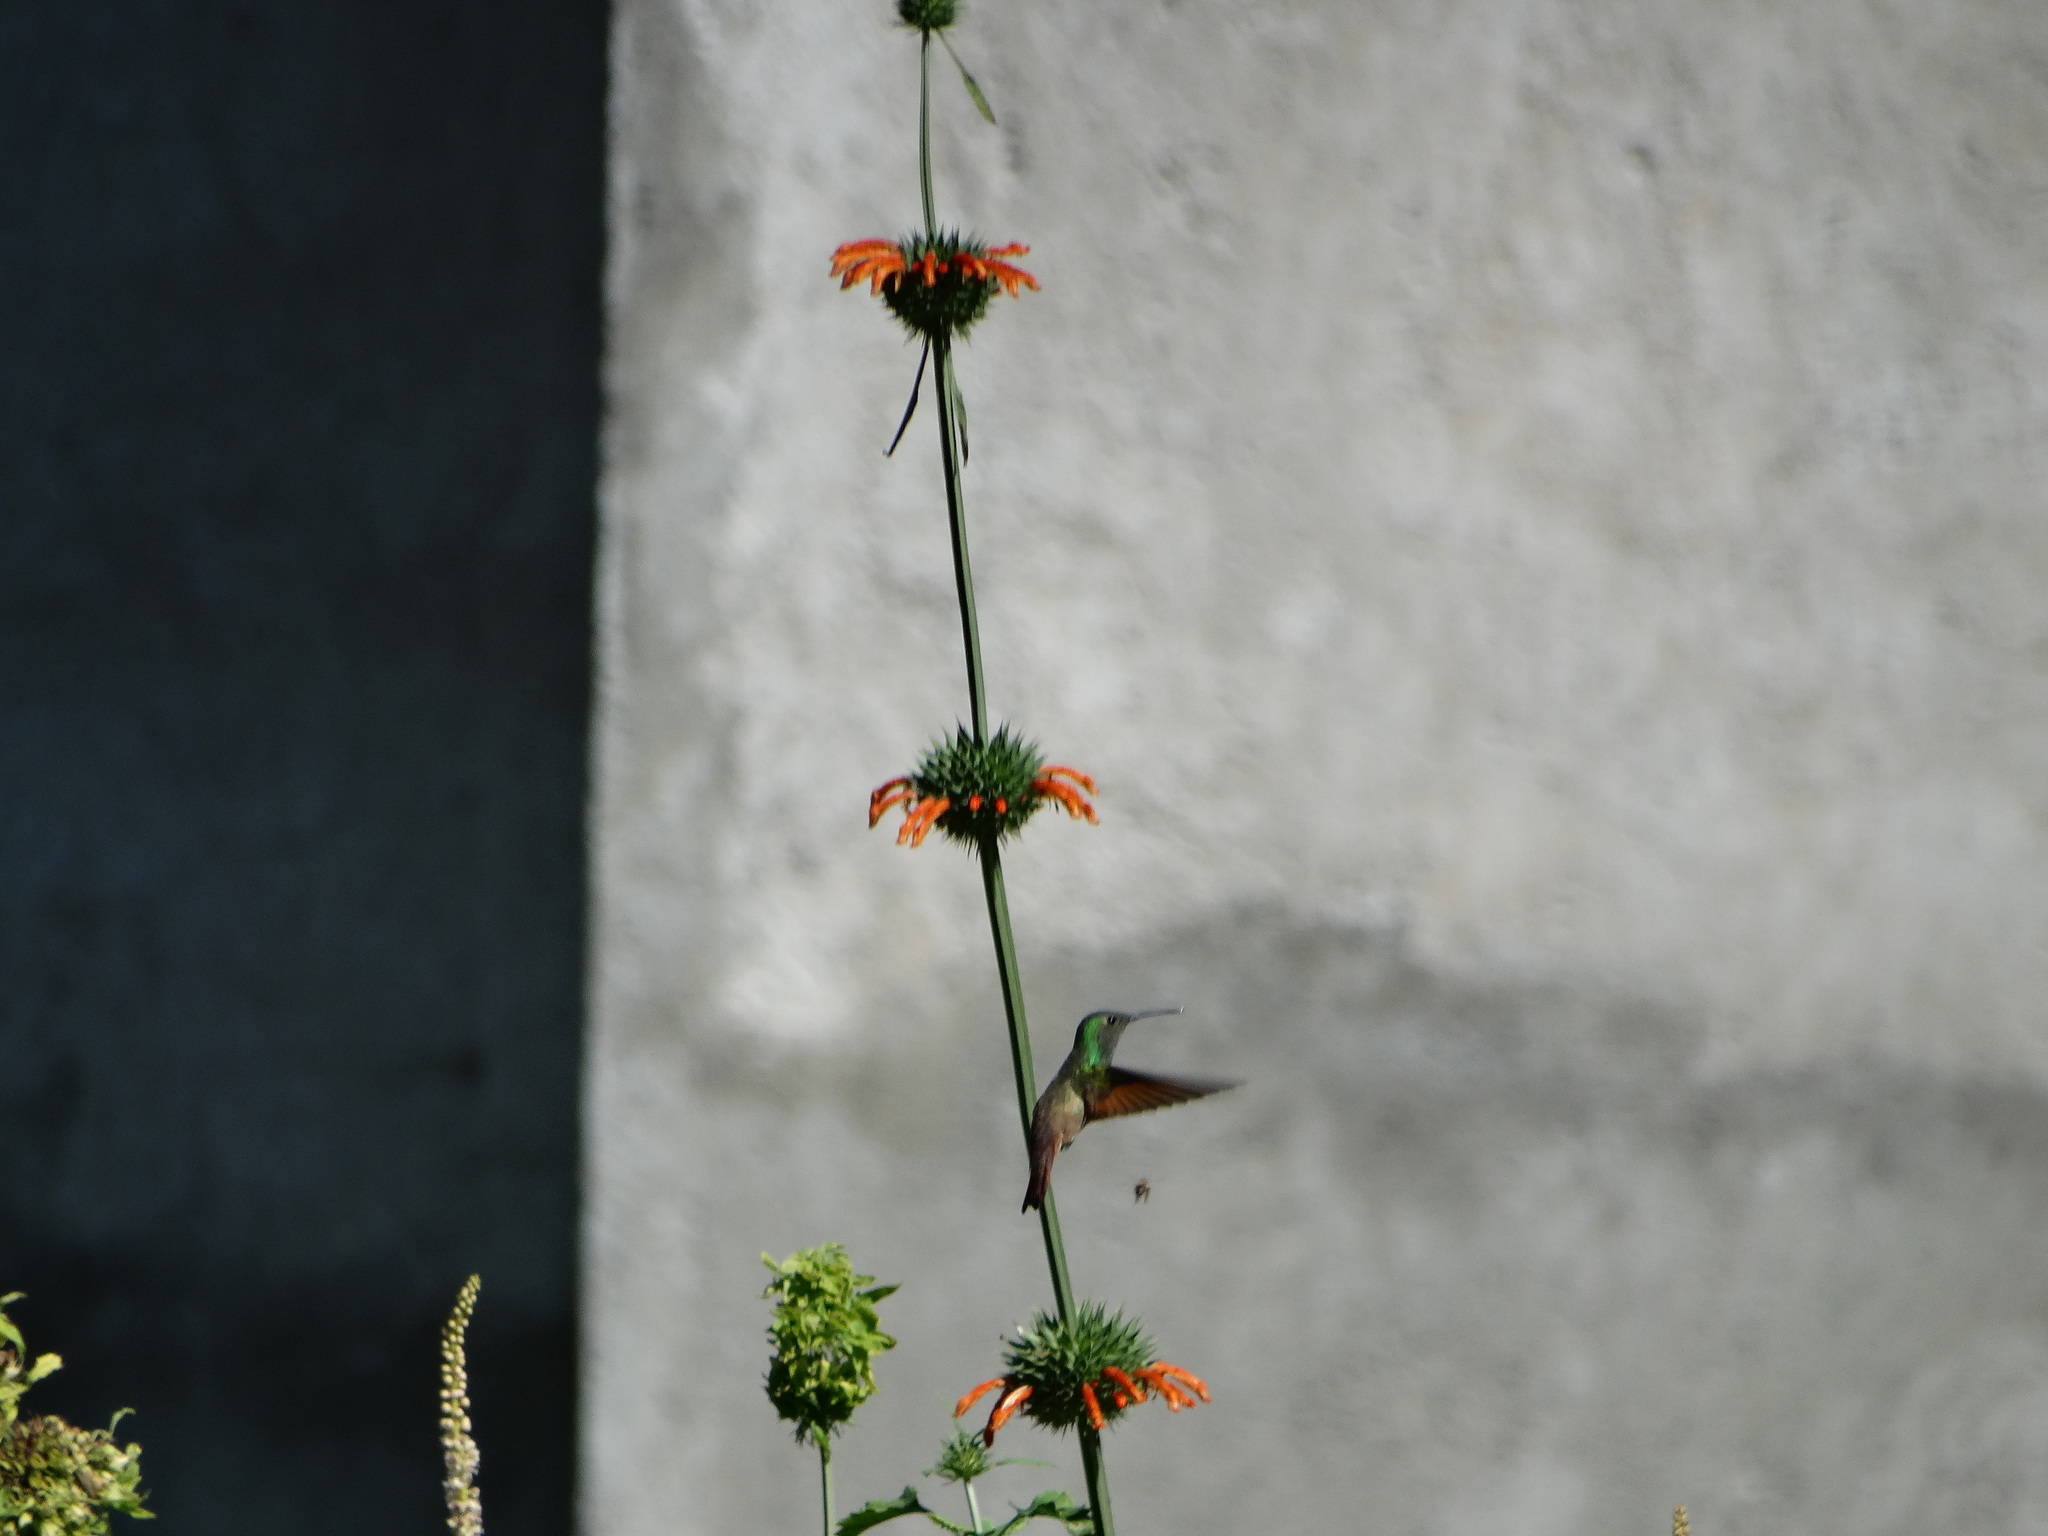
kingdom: Animalia
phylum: Chordata
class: Aves
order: Apodiformes
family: Trochilidae
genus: Saucerottia
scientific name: Saucerottia beryllina
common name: Berylline hummingbird
